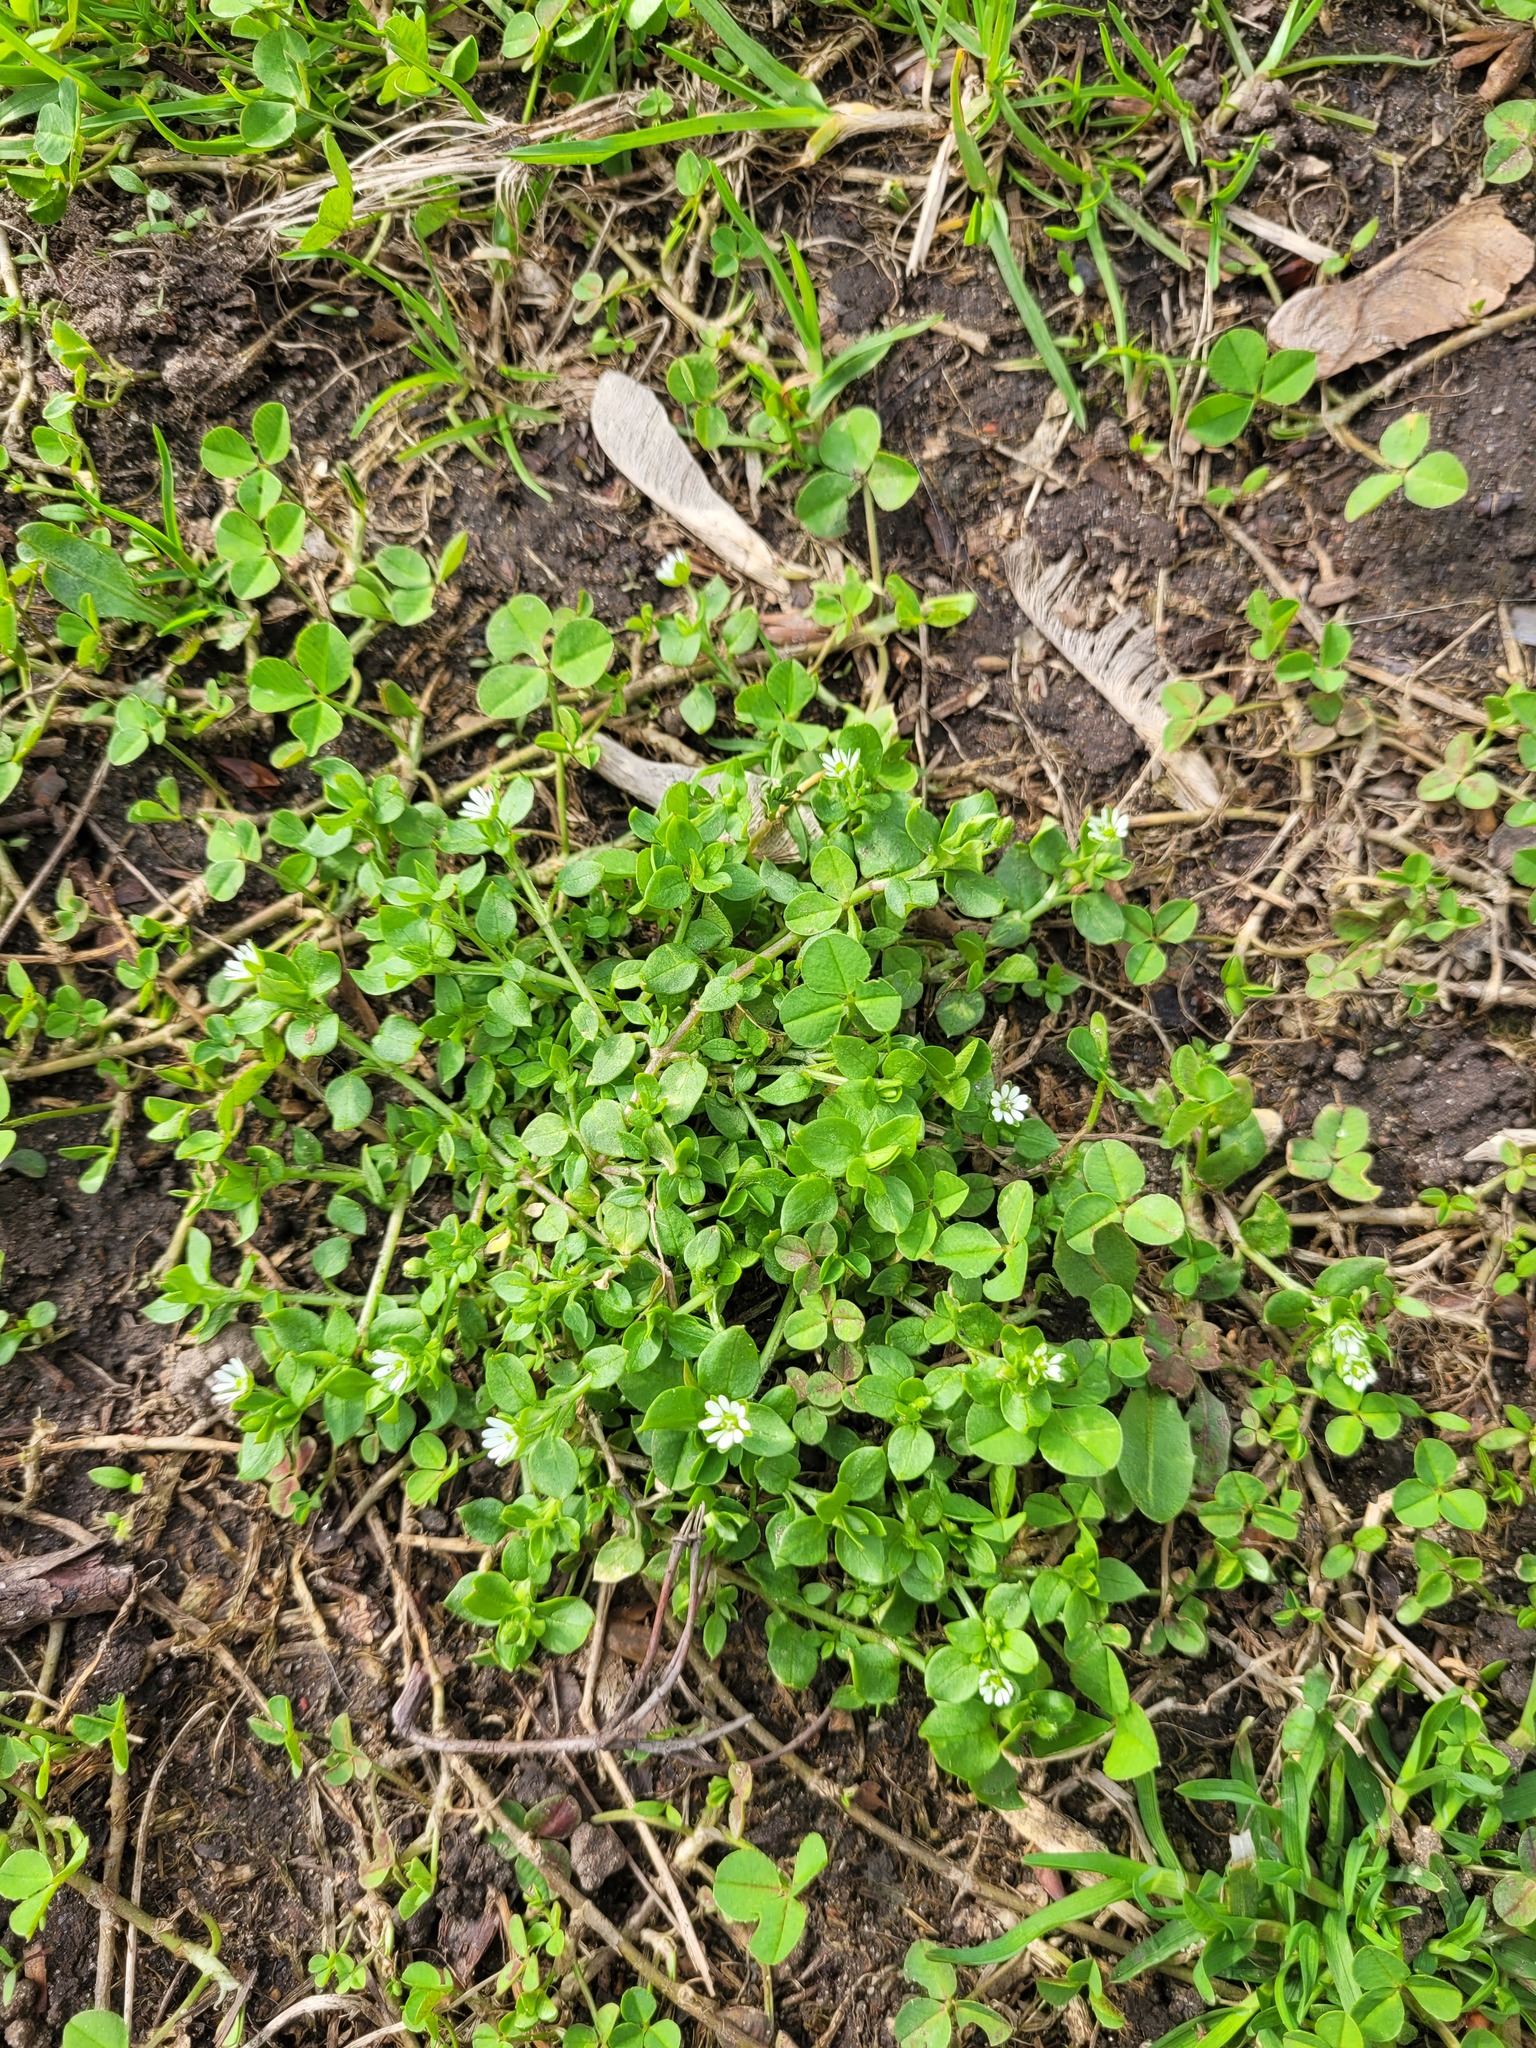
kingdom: Plantae
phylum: Tracheophyta
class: Magnoliopsida
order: Caryophyllales
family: Caryophyllaceae
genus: Stellaria
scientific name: Stellaria media
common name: Common chickweed
